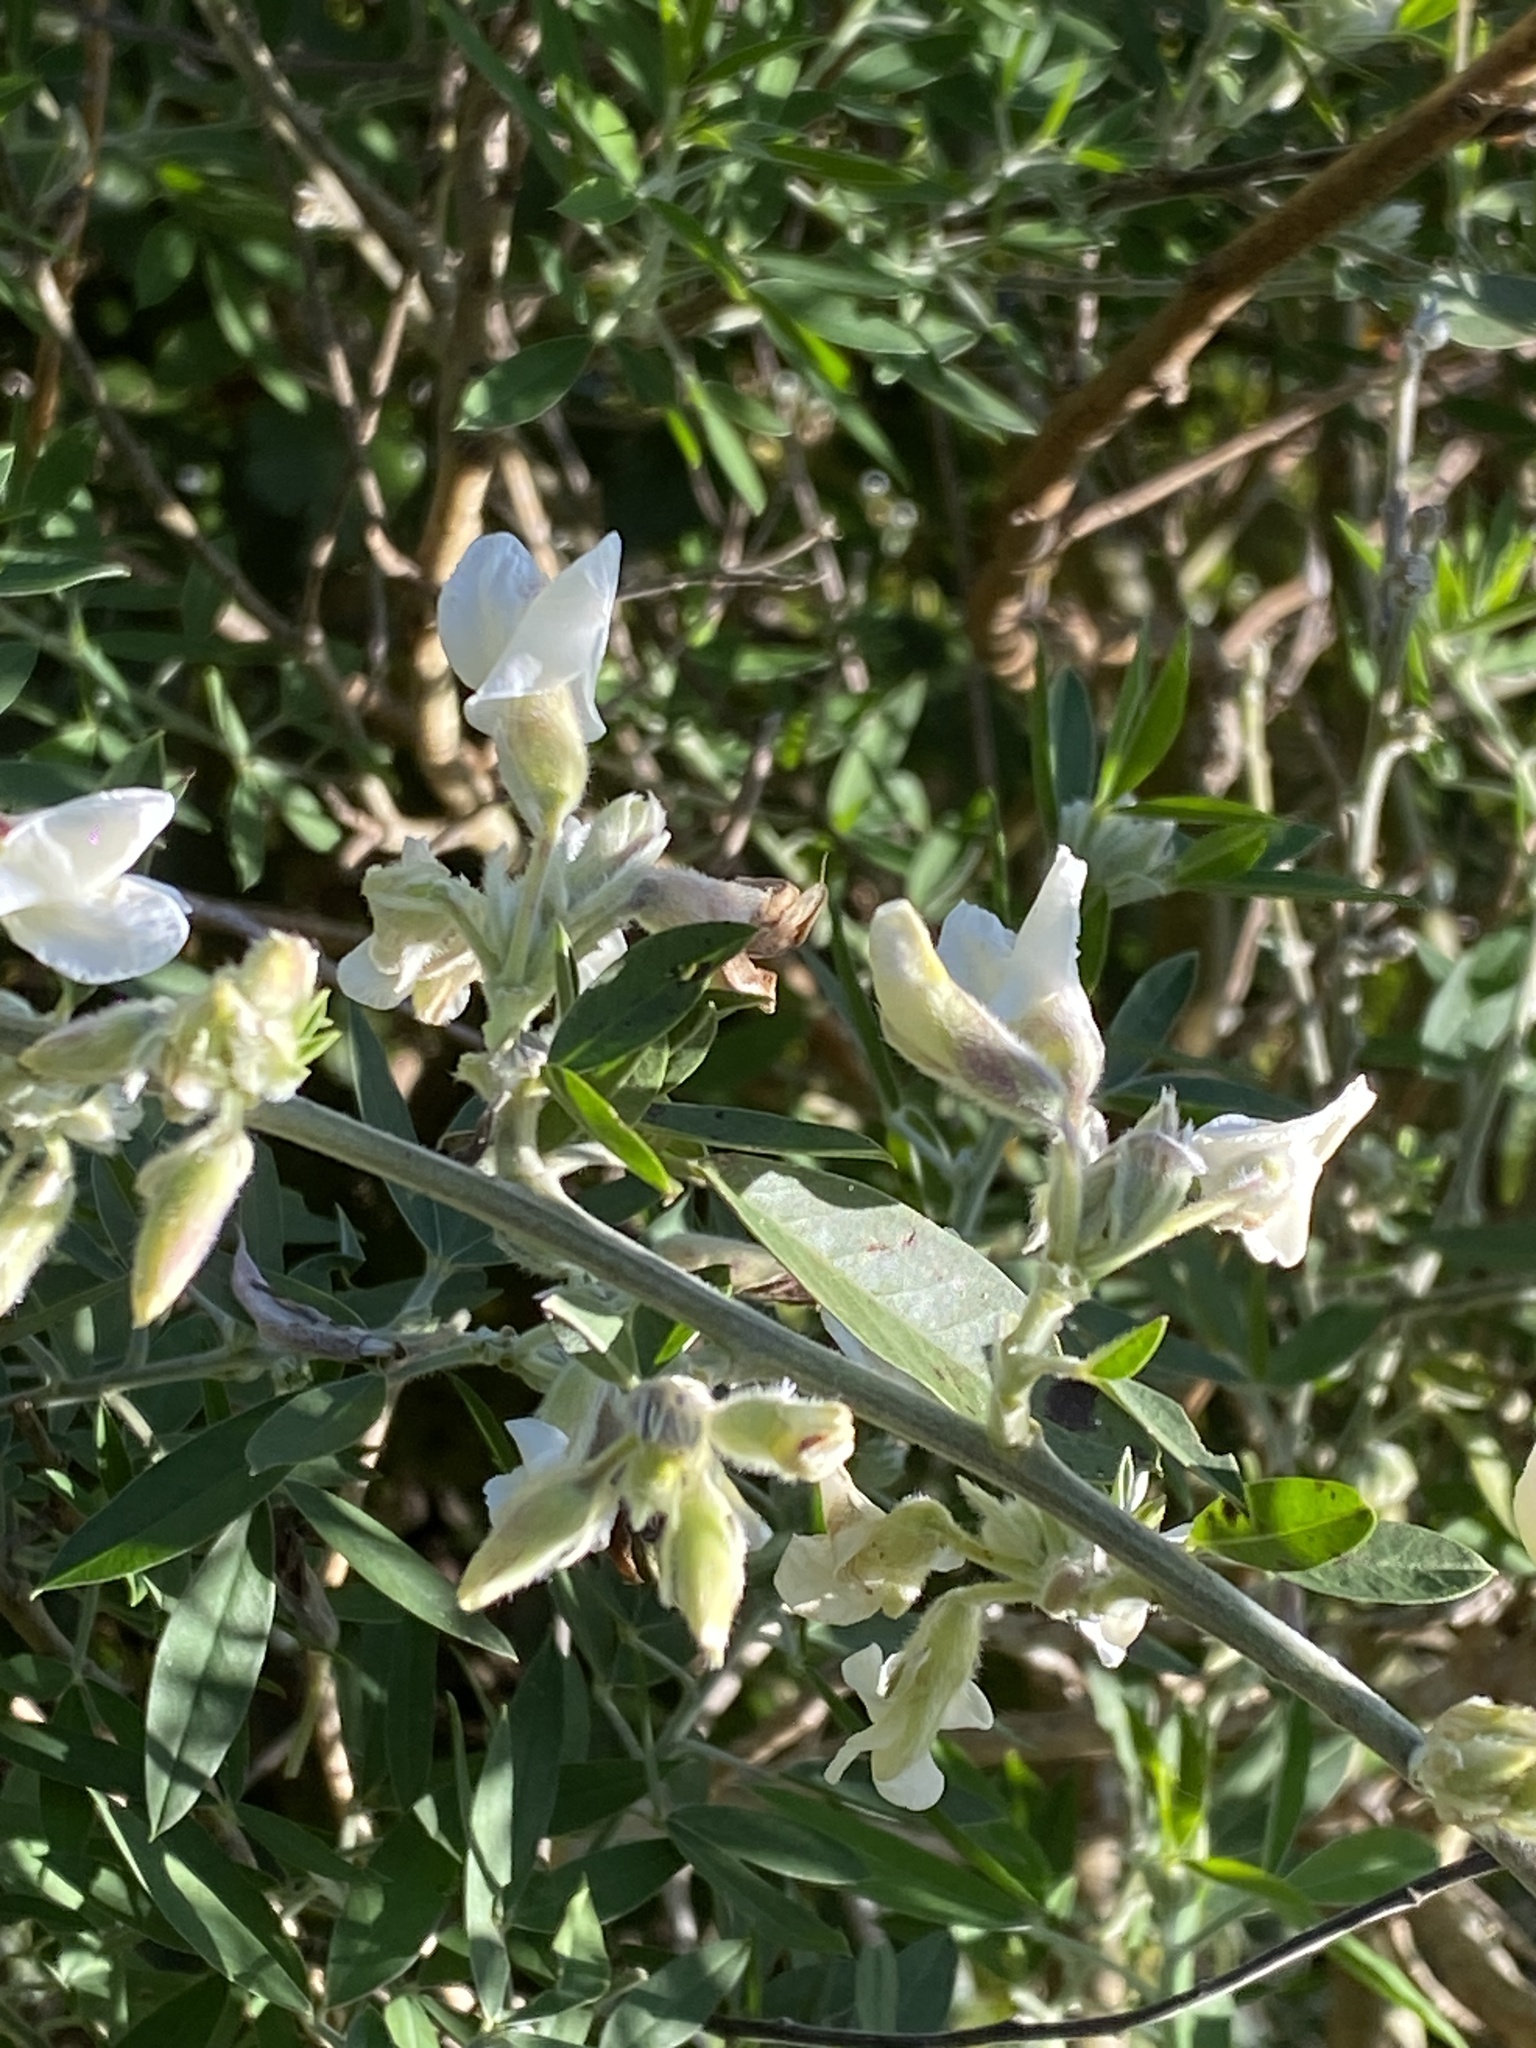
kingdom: Plantae
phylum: Tracheophyta
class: Magnoliopsida
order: Fabales
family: Fabaceae
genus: Chamaecytisus
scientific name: Chamaecytisus prolifer
